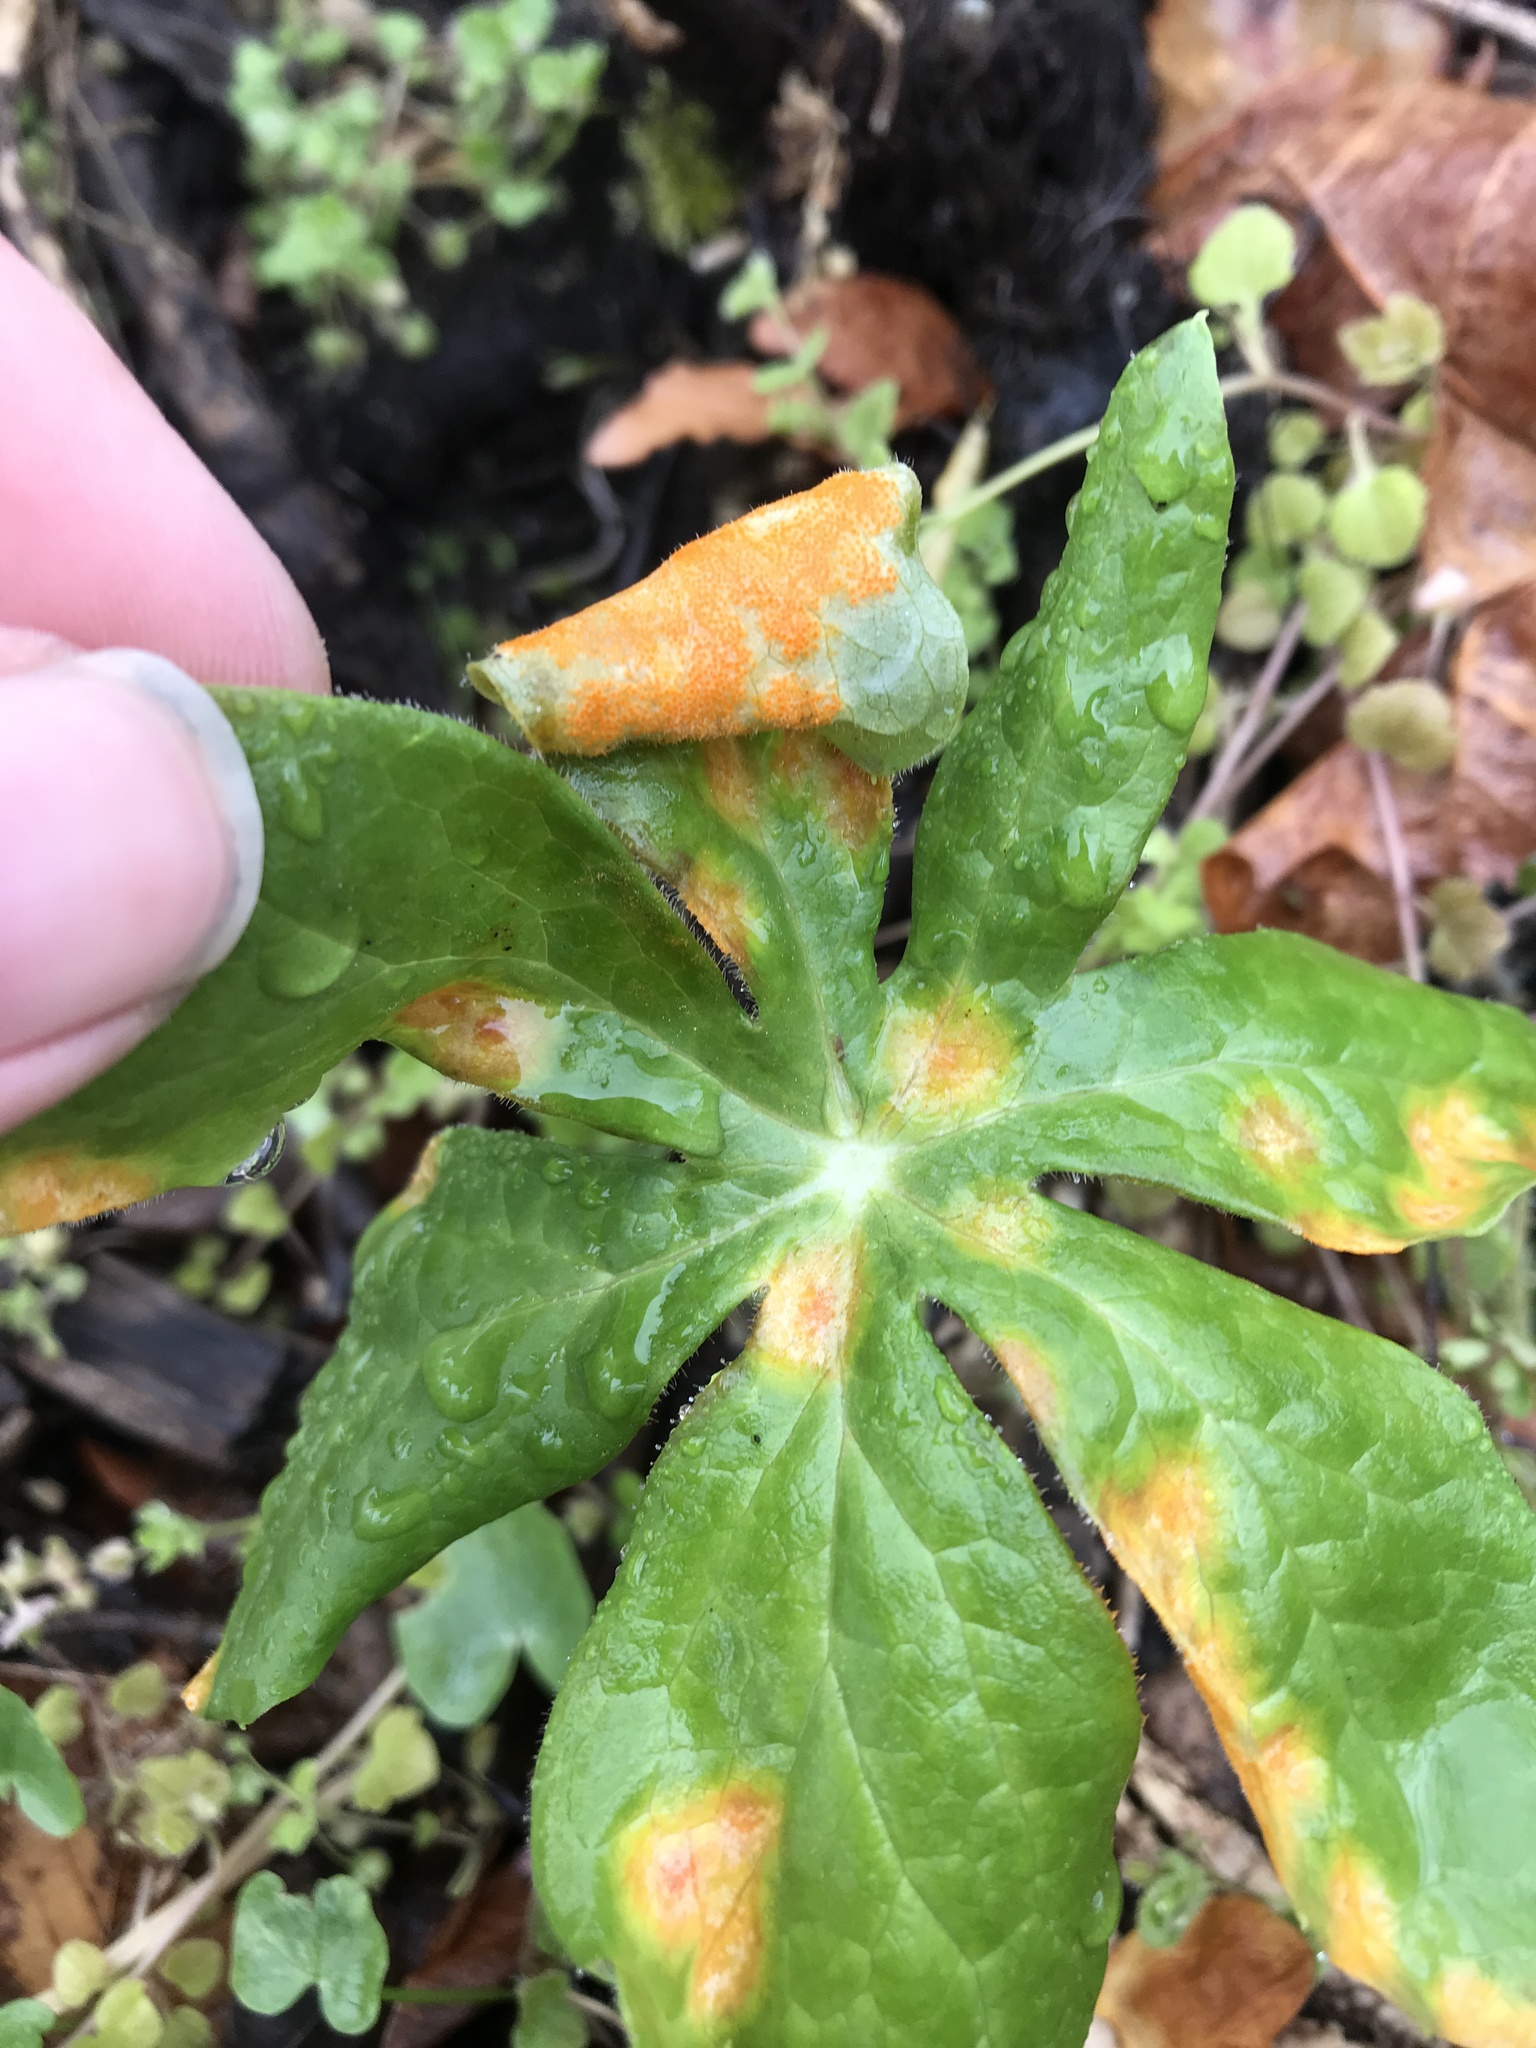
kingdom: Fungi
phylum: Basidiomycota
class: Pucciniomycetes
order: Pucciniales
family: Pucciniaceae
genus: Puccinia
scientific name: Puccinia podophylli
